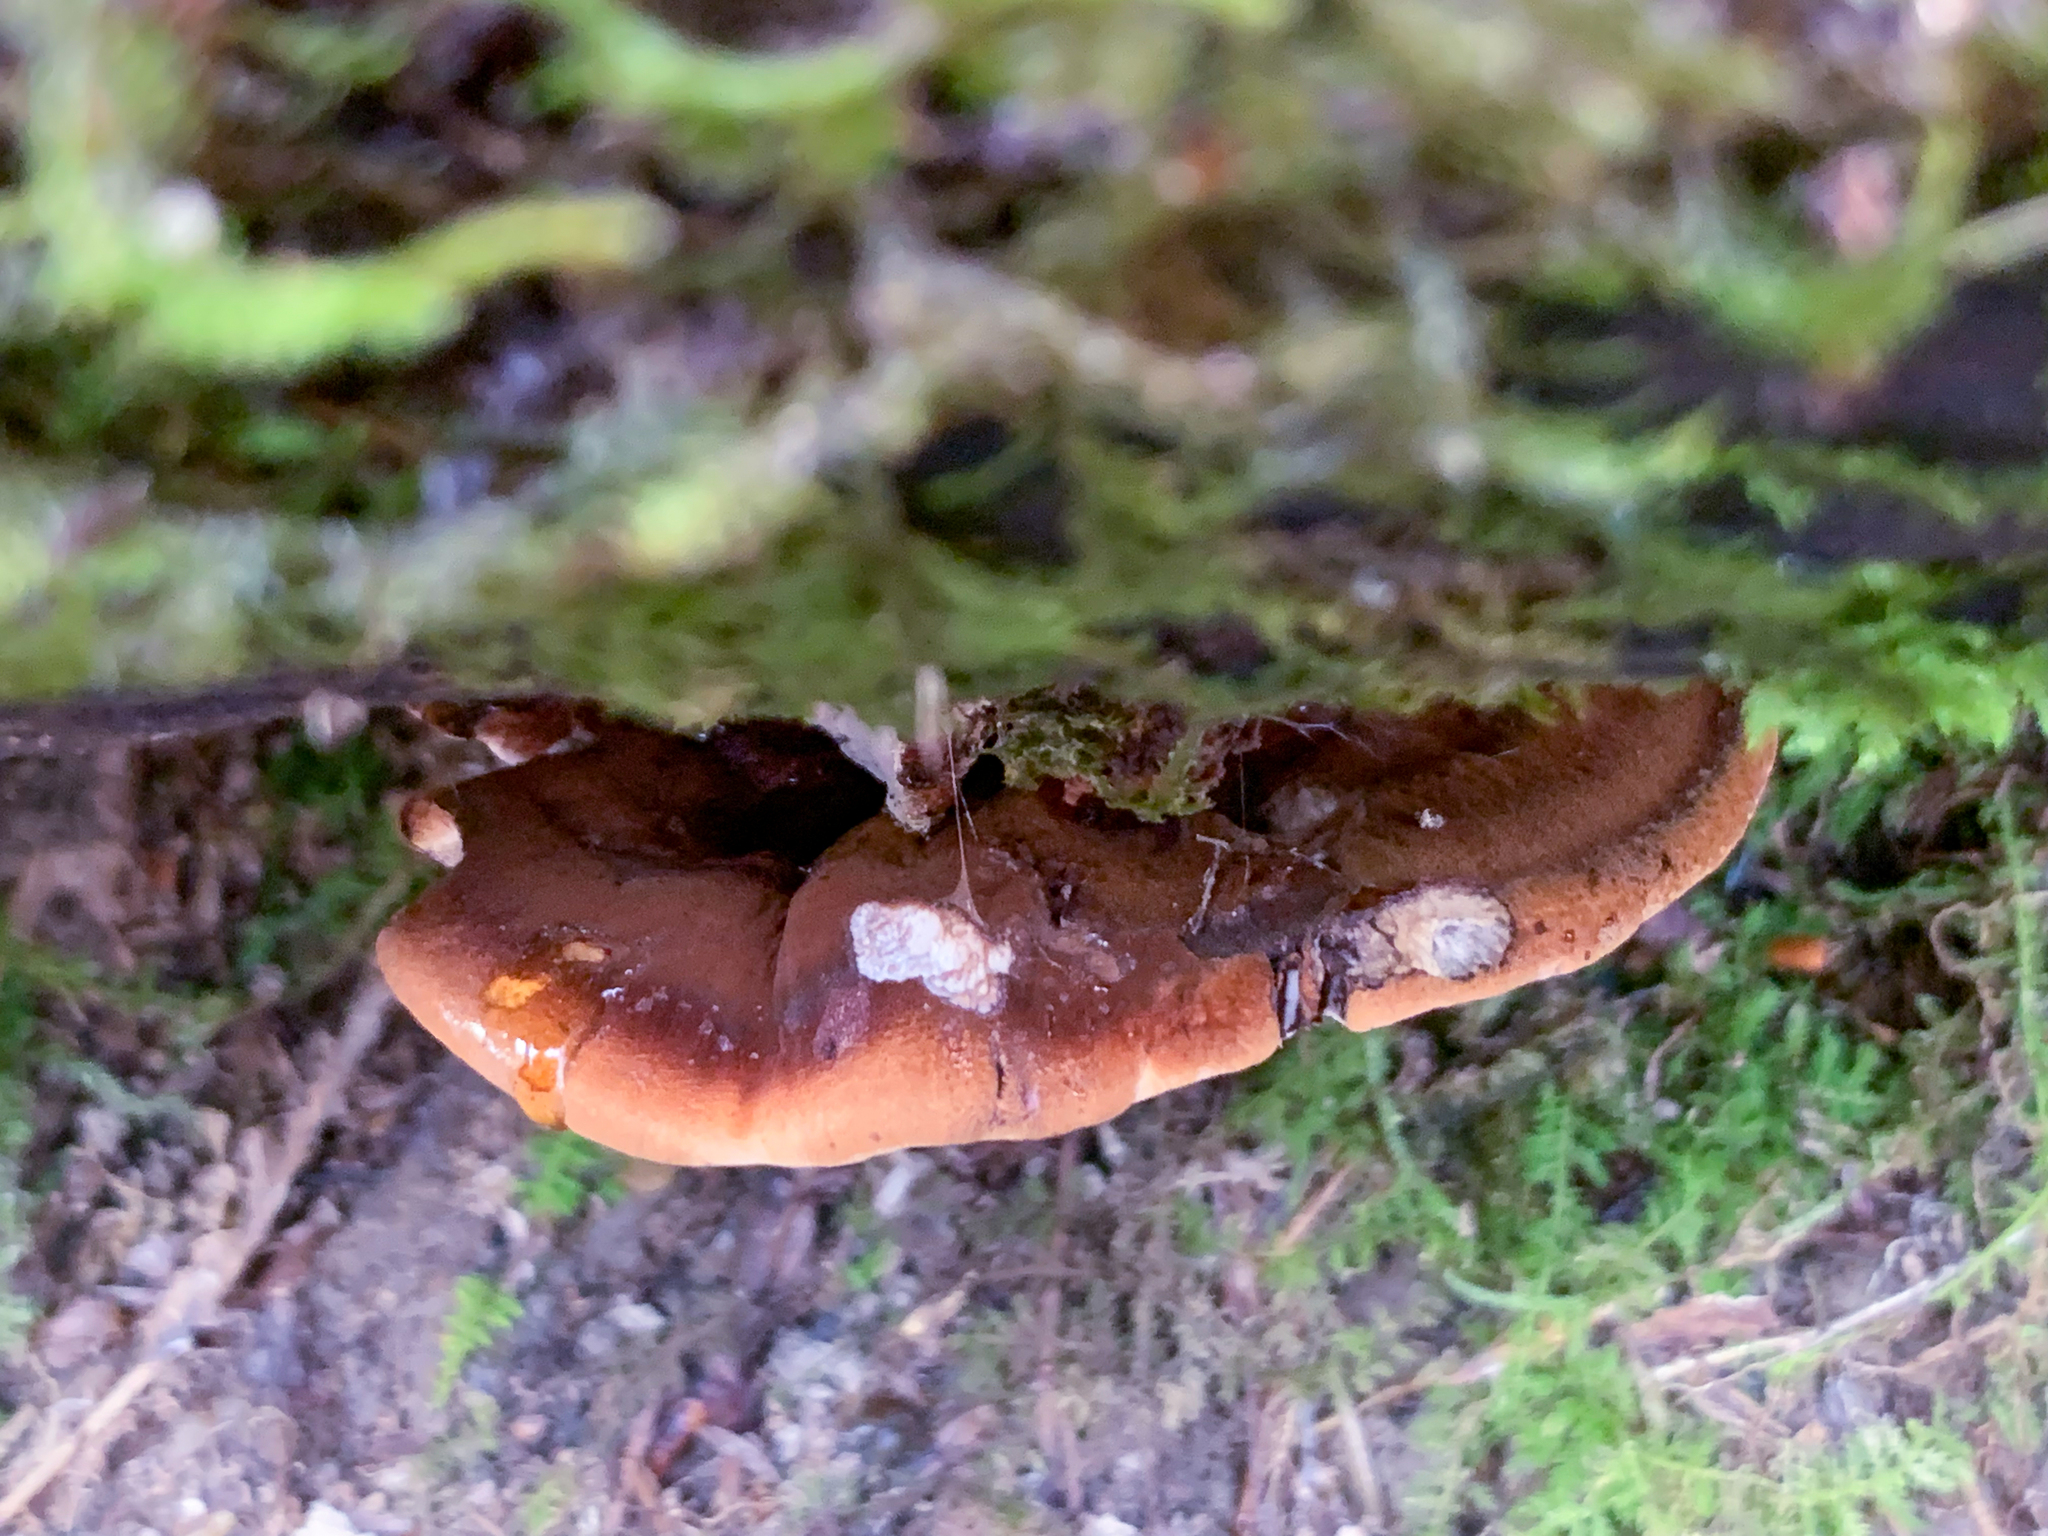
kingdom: Fungi
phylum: Basidiomycota
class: Agaricomycetes
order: Polyporales
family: Ischnodermataceae
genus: Ischnoderma
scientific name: Ischnoderma resinosum
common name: Resinous polypore
